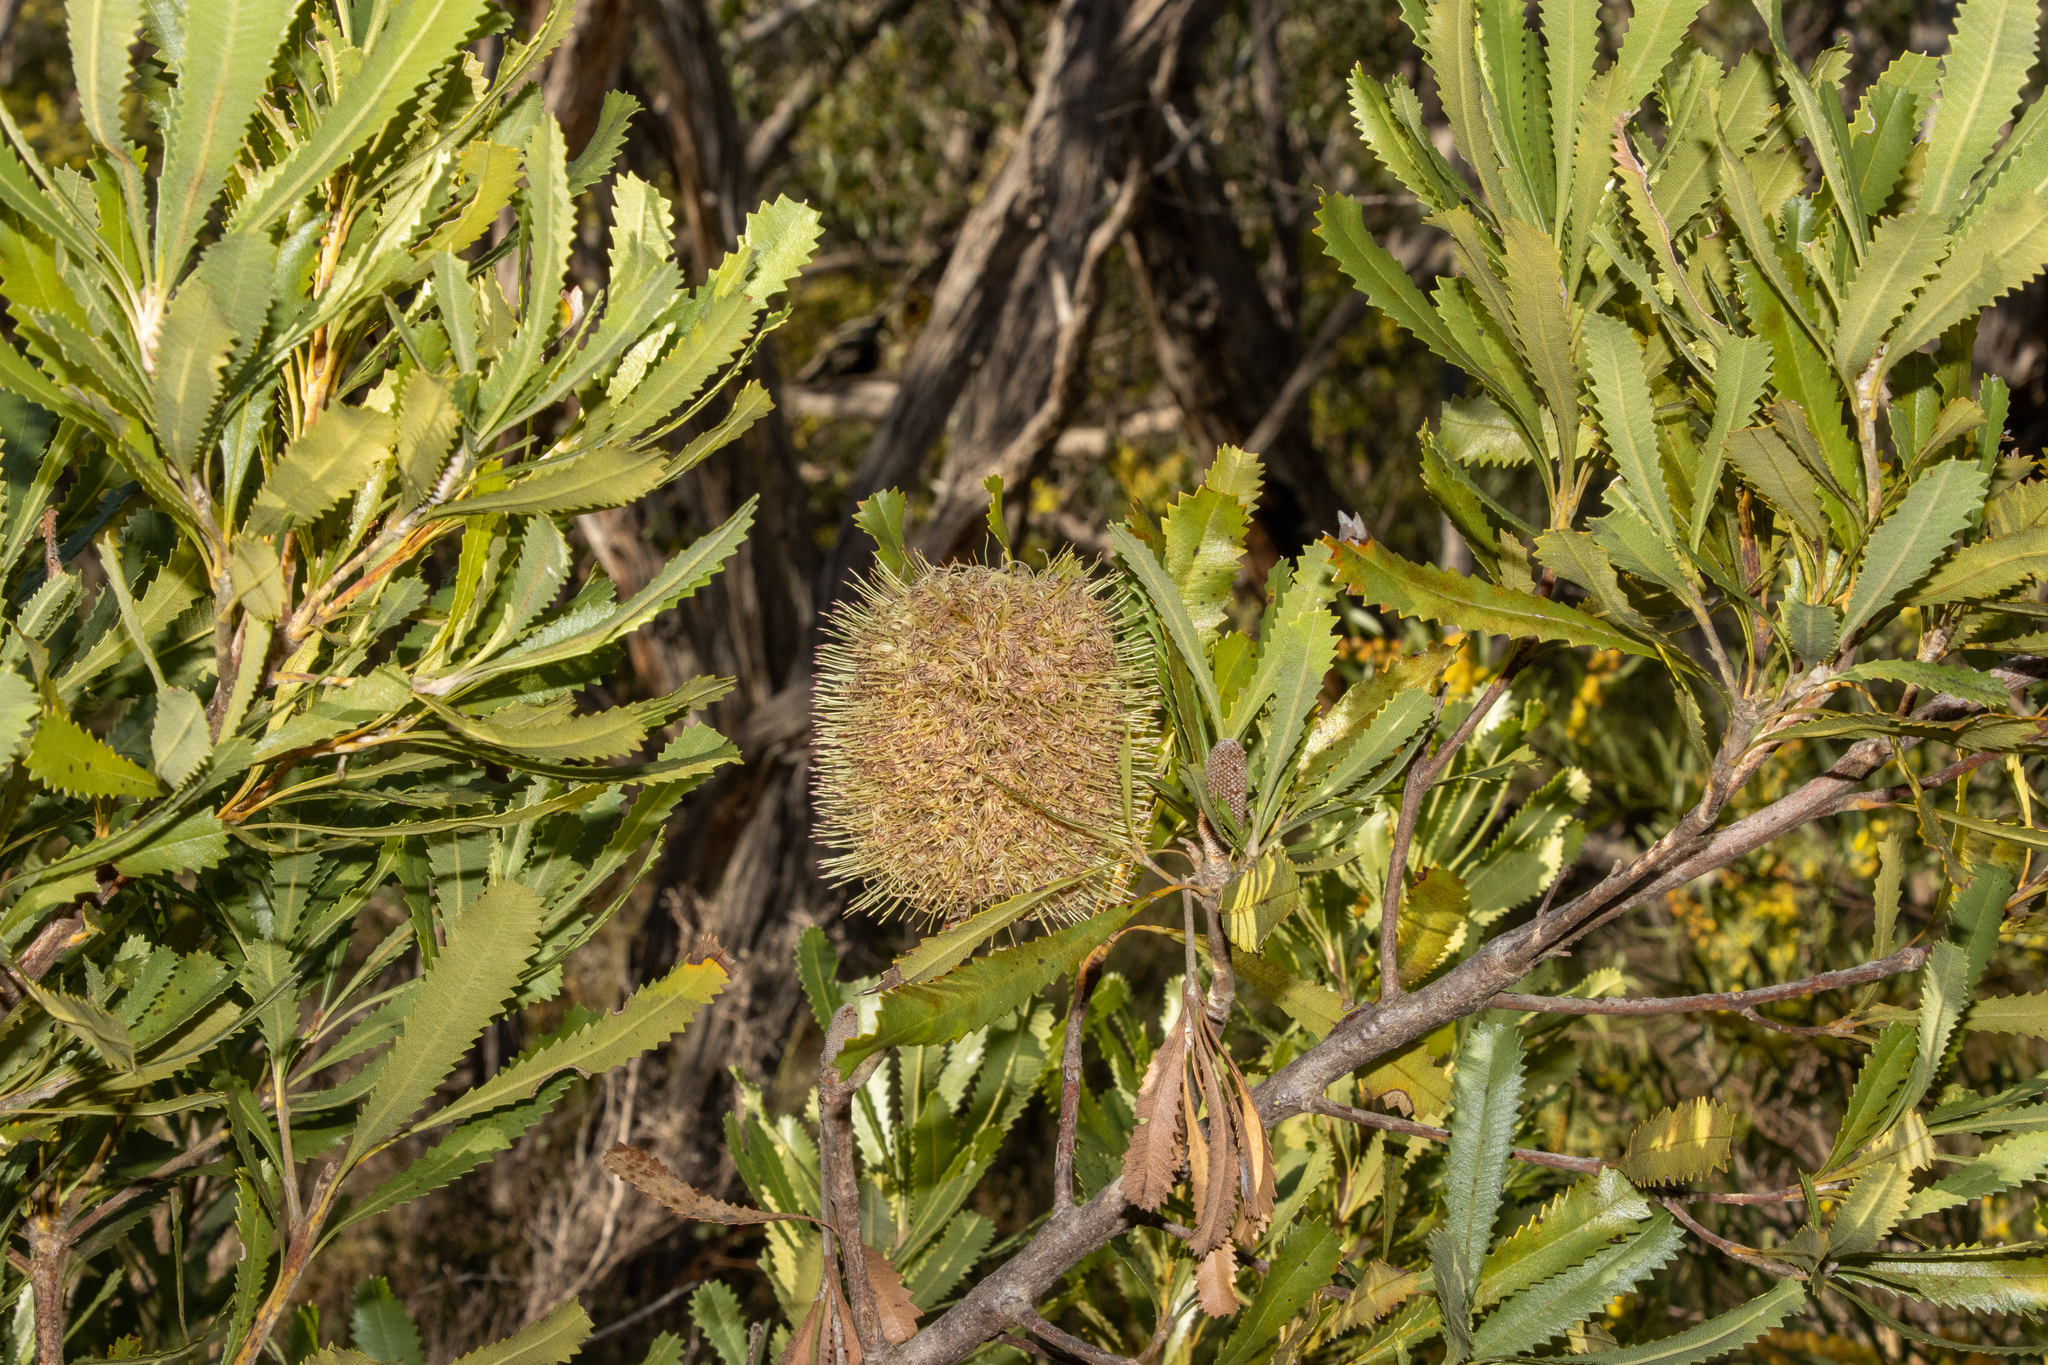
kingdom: Plantae
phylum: Tracheophyta
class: Magnoliopsida
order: Proteales
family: Proteaceae
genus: Banksia
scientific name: Banksia ornata
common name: Desert banksia
